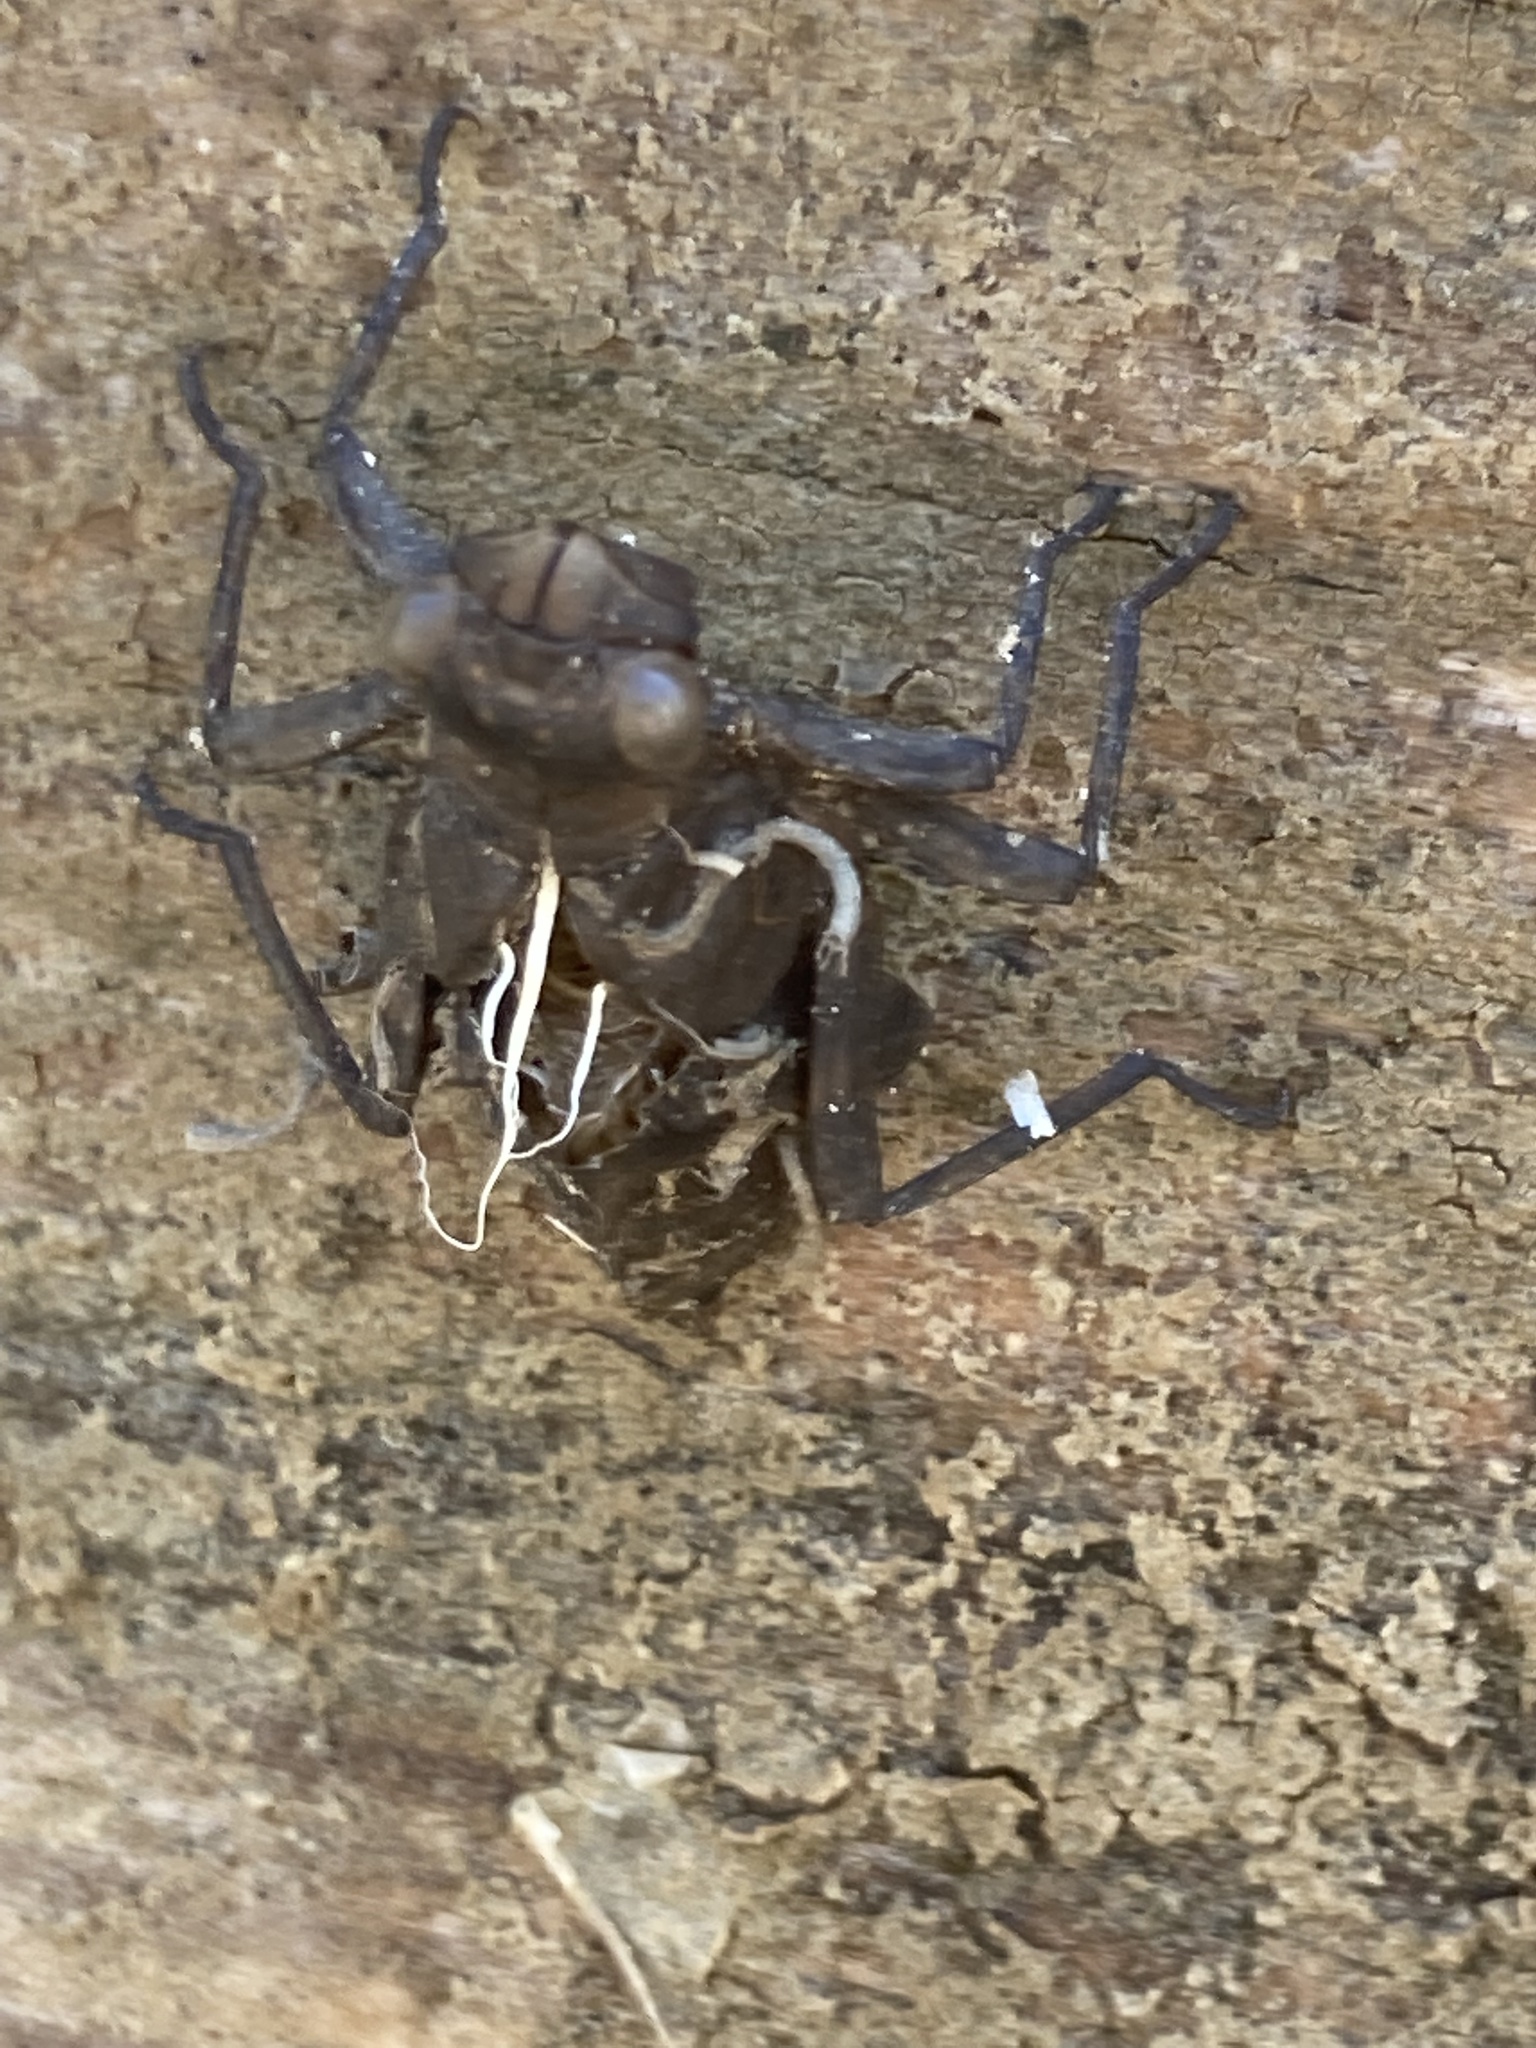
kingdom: Animalia
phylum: Arthropoda
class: Insecta
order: Odonata
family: Aeshnidae
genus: Boyeria
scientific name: Boyeria irene
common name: Western spectre
